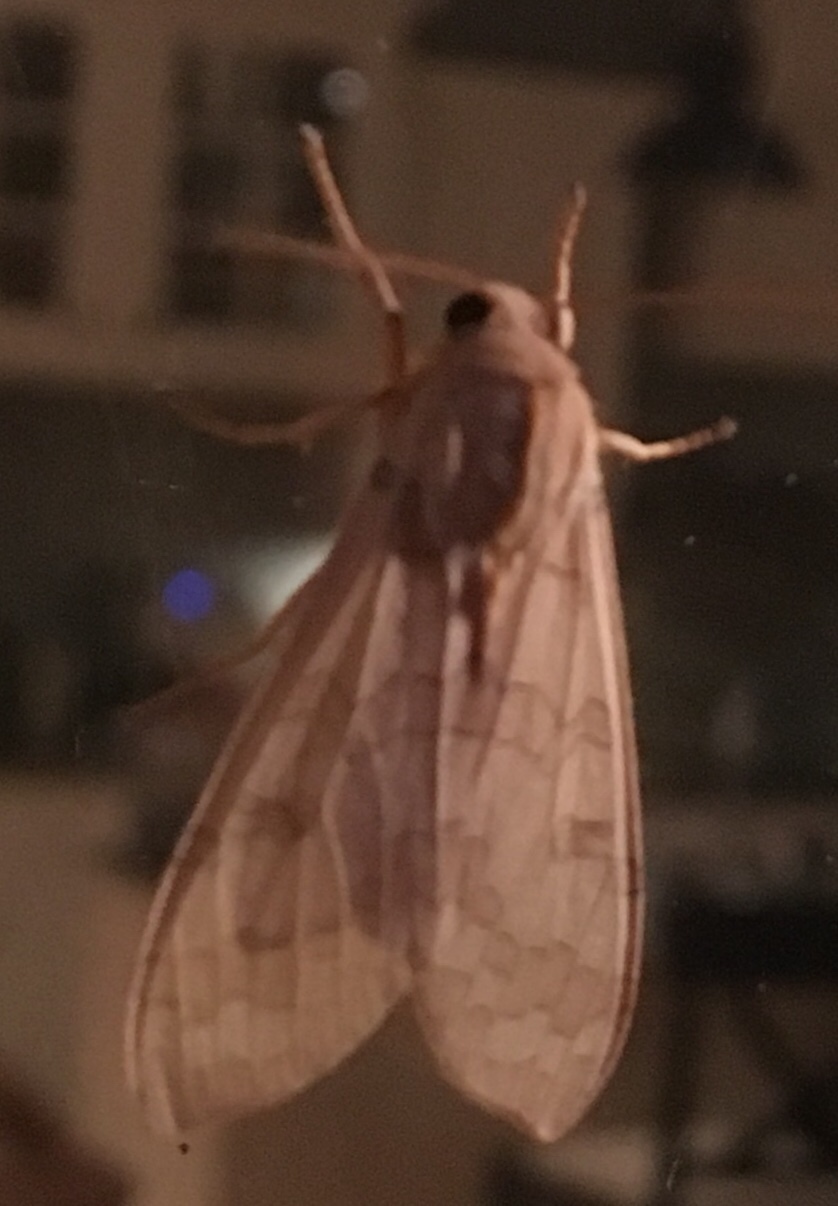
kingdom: Animalia
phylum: Arthropoda
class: Insecta
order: Lepidoptera
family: Erebidae
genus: Halysidota
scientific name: Halysidota
